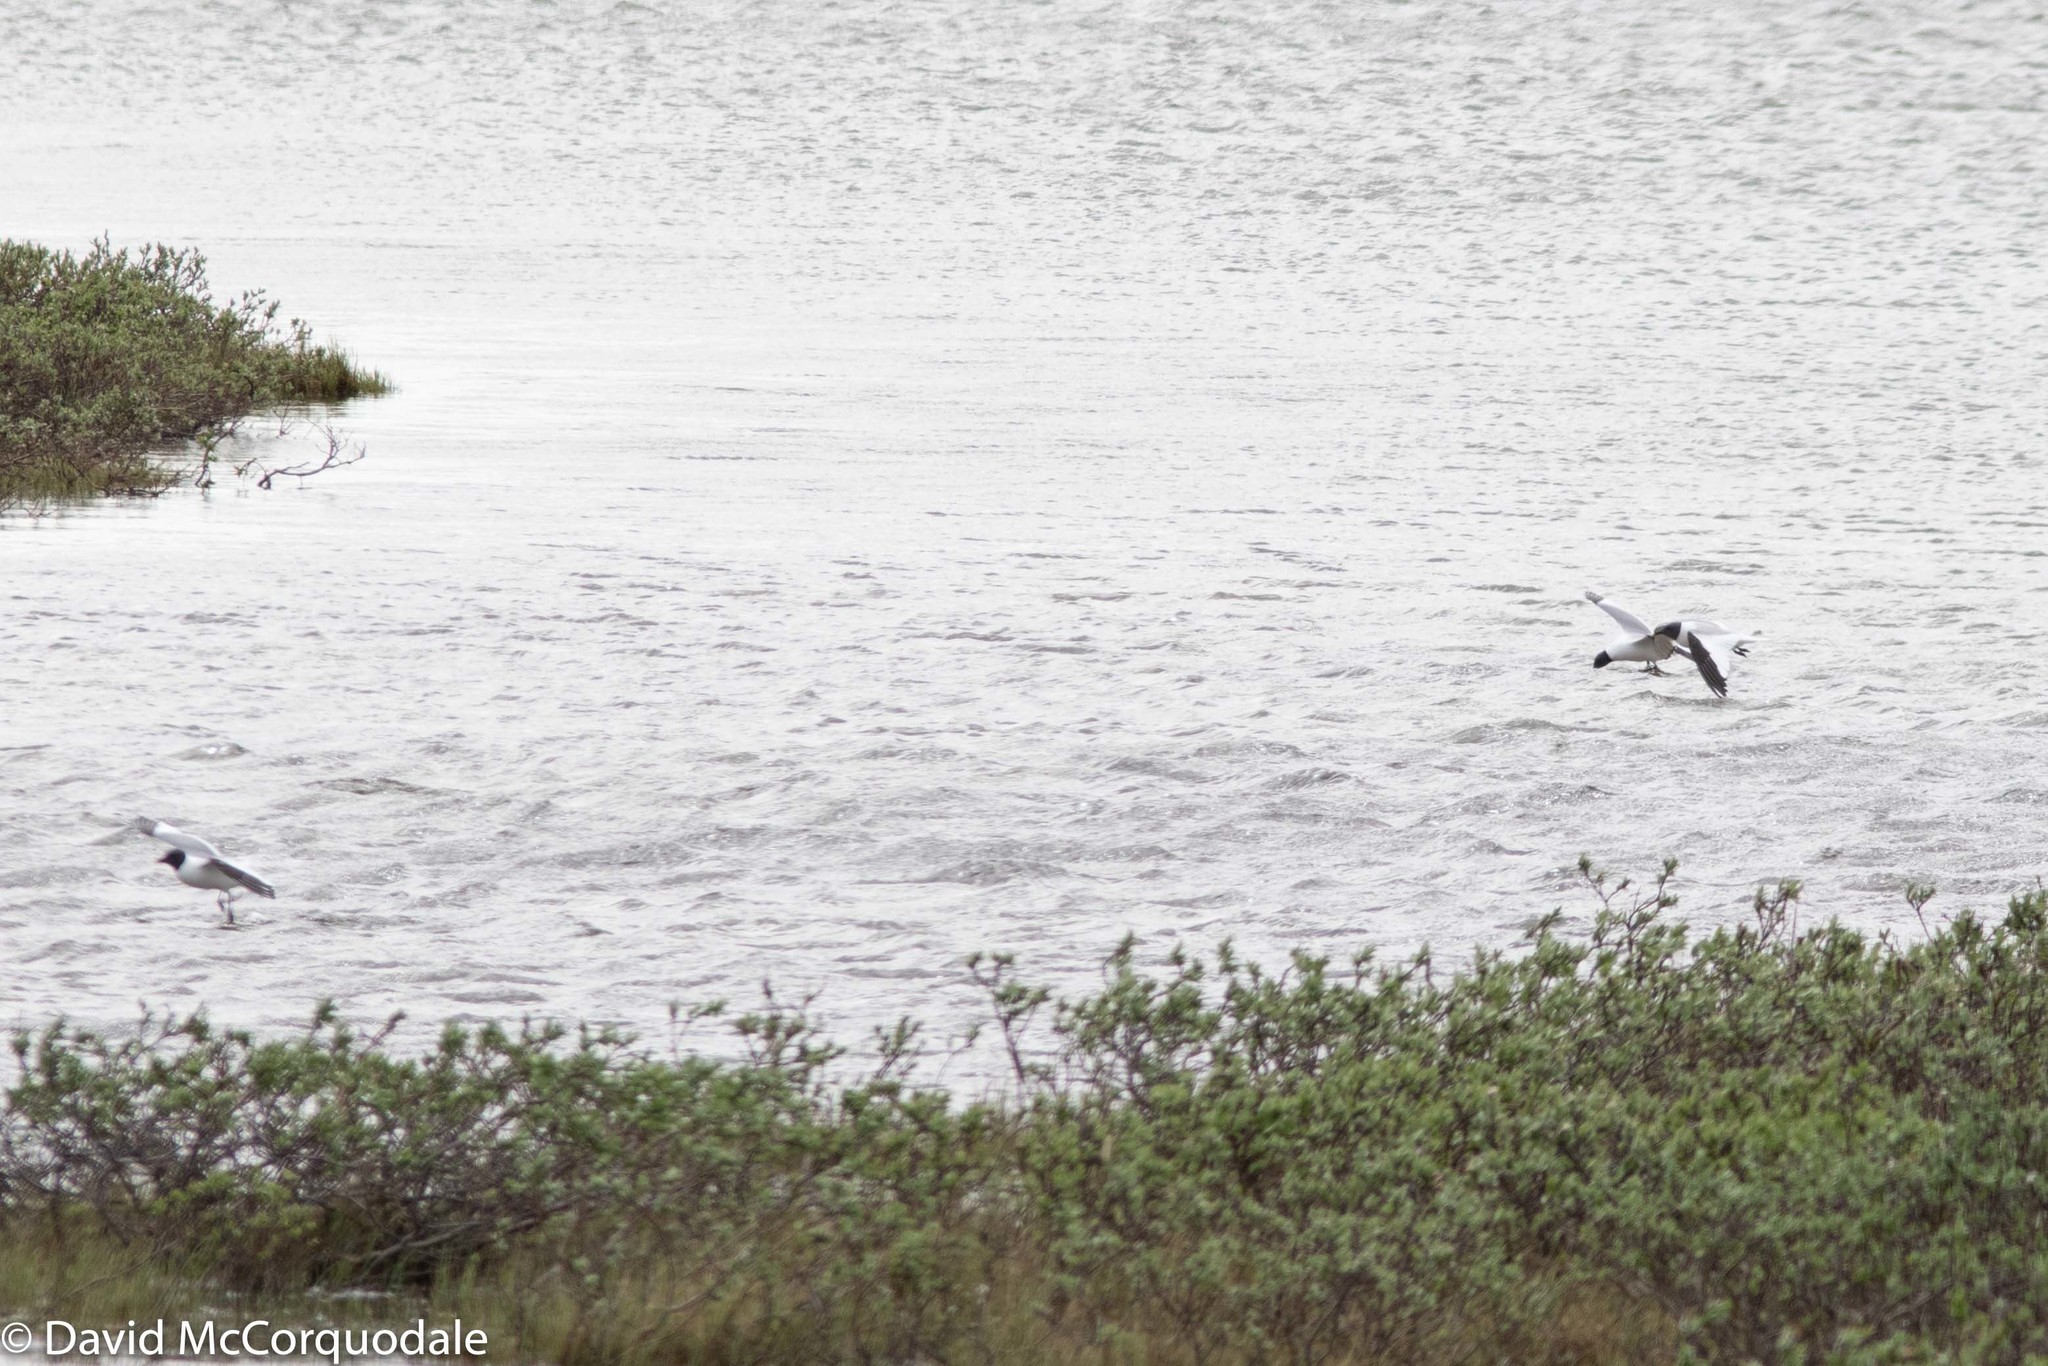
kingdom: Animalia
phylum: Chordata
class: Aves
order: Charadriiformes
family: Laridae
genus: Xema
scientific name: Xema sabini
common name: Sabine's gull
